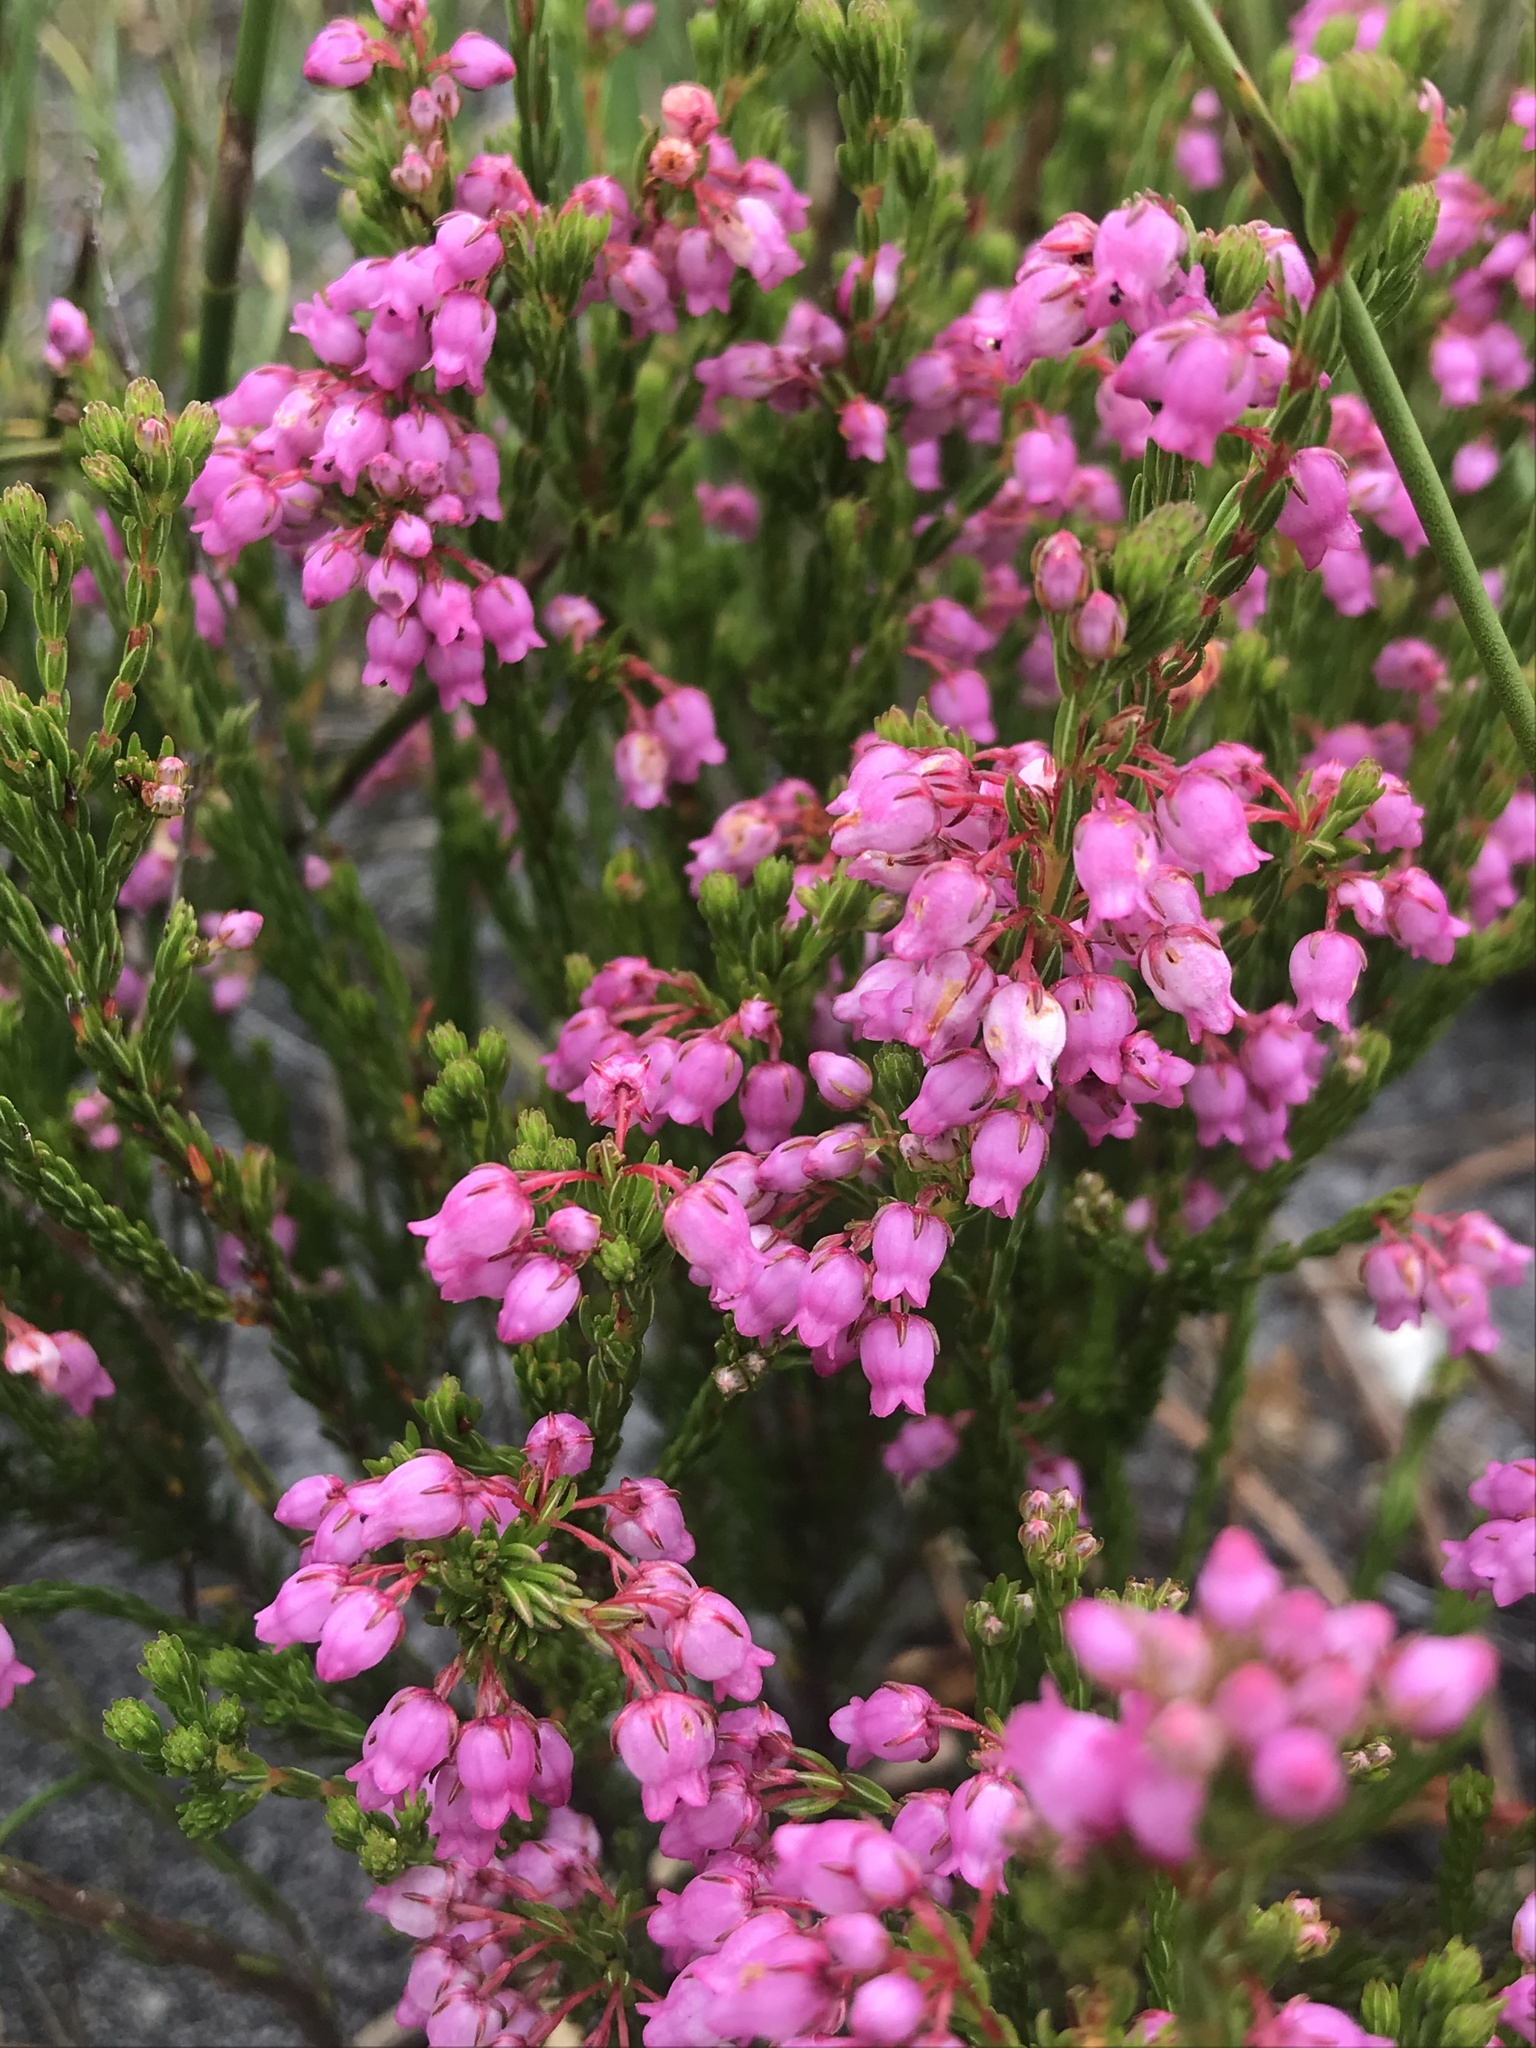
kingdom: Plantae
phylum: Tracheophyta
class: Magnoliopsida
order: Ericales
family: Ericaceae
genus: Erica
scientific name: Erica laeta
